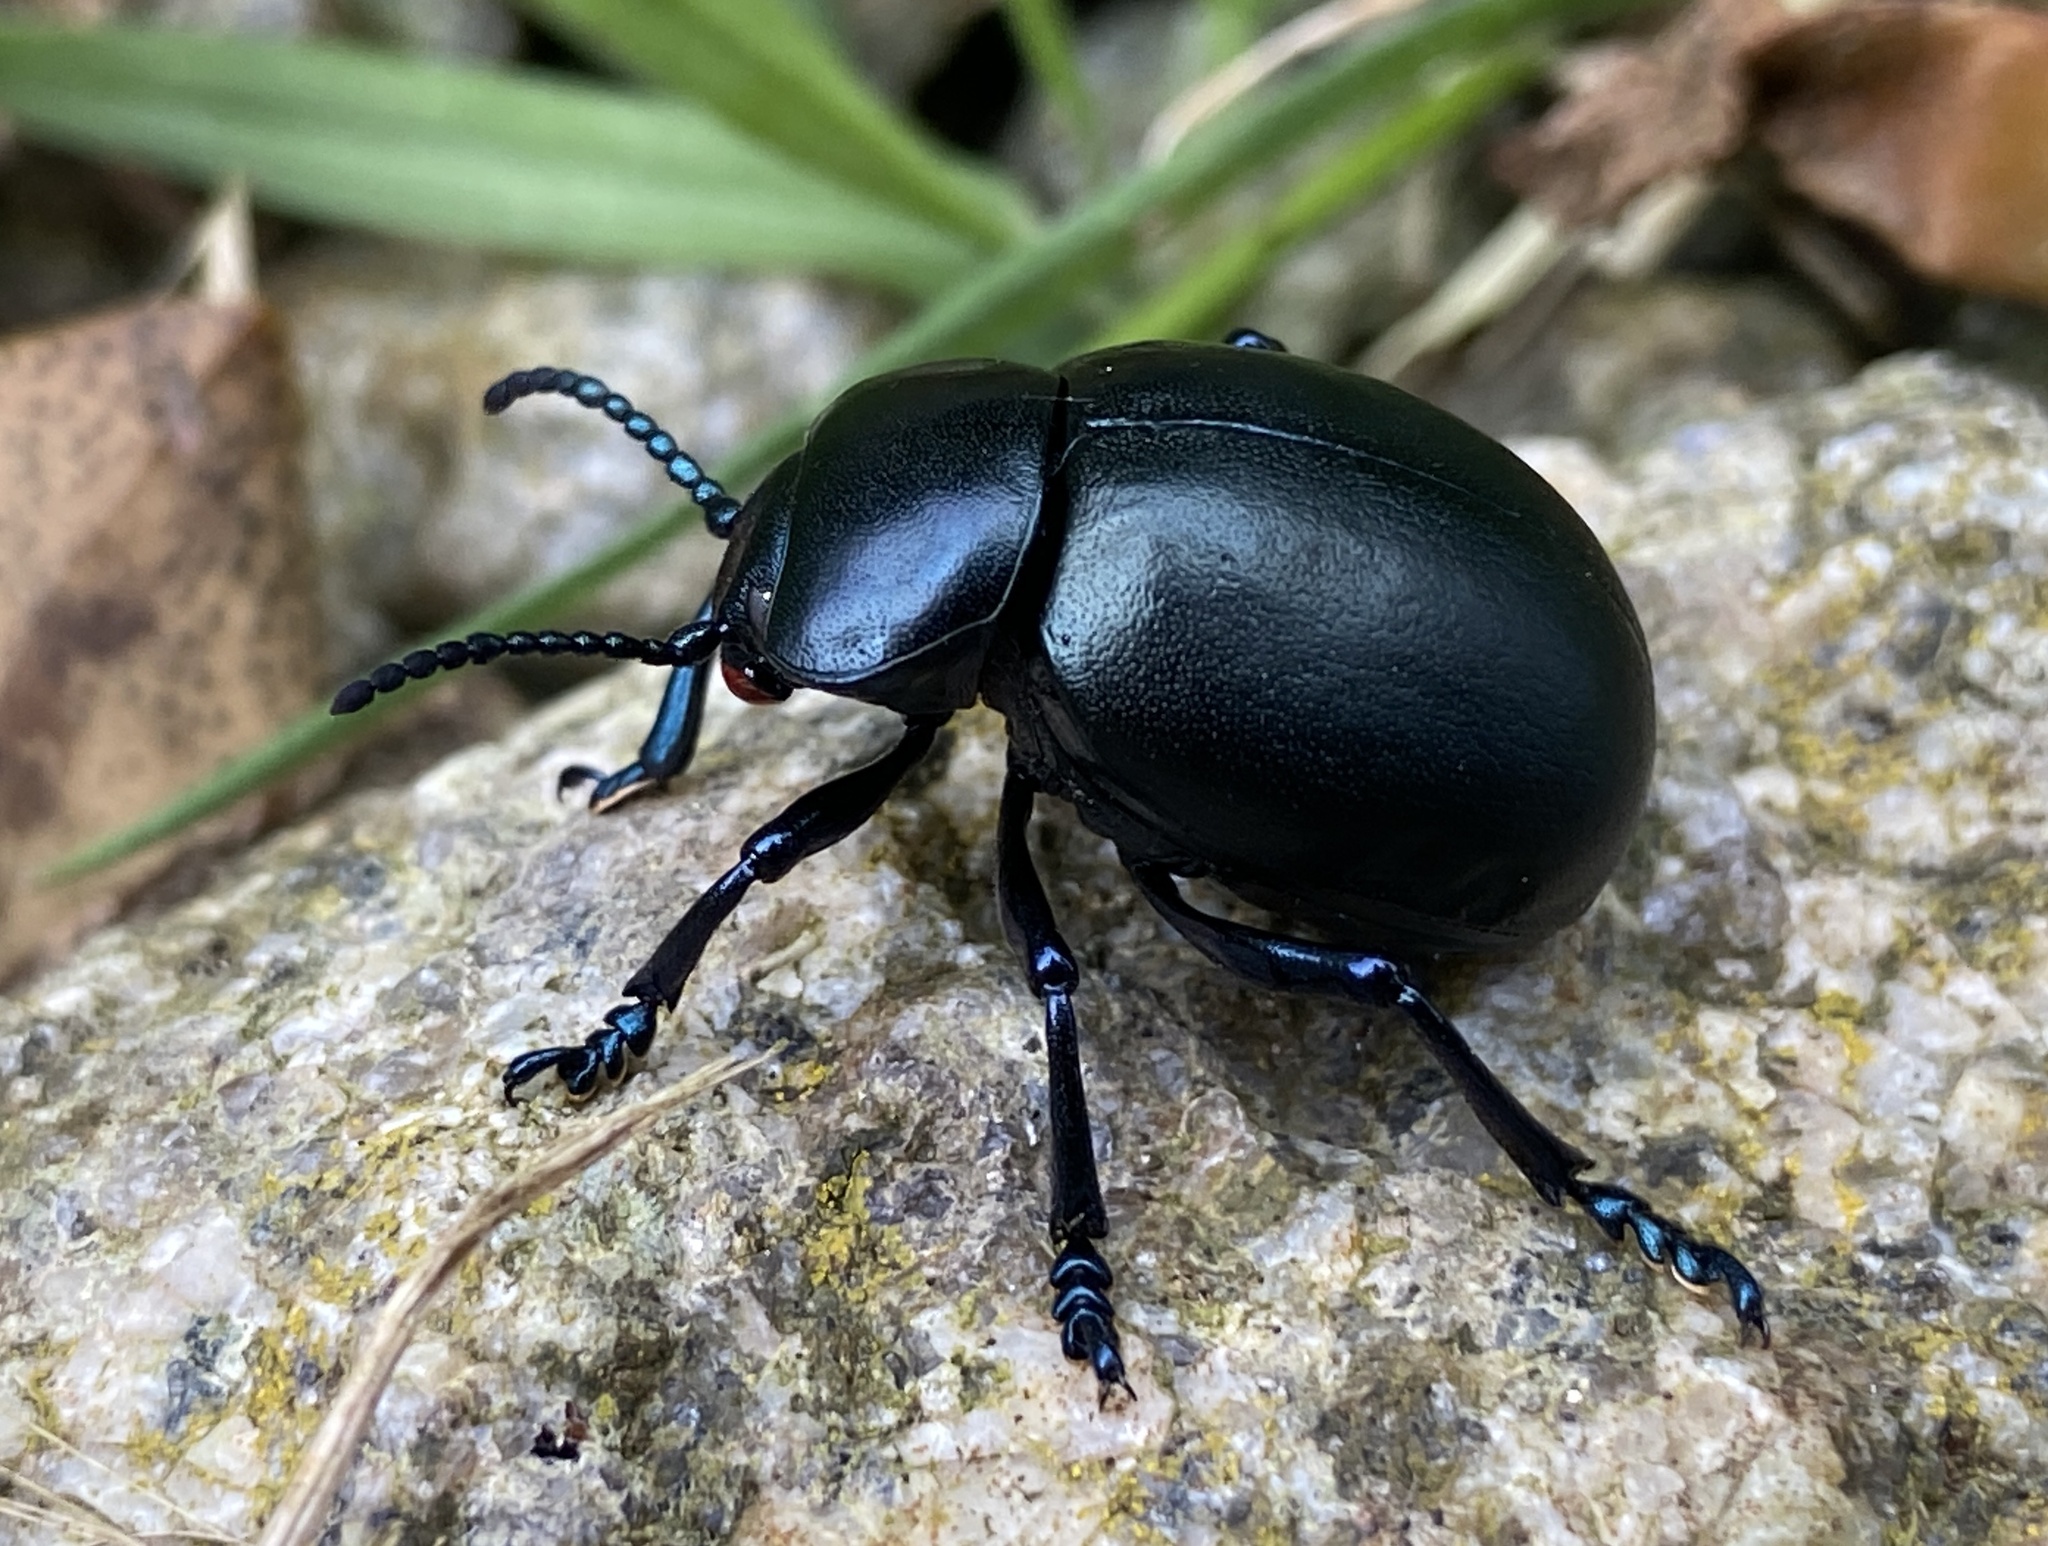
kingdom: Animalia
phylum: Arthropoda
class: Insecta
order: Coleoptera
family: Chrysomelidae
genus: Timarcha
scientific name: Timarcha tenebricosa
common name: Bloody-nosed beetle
